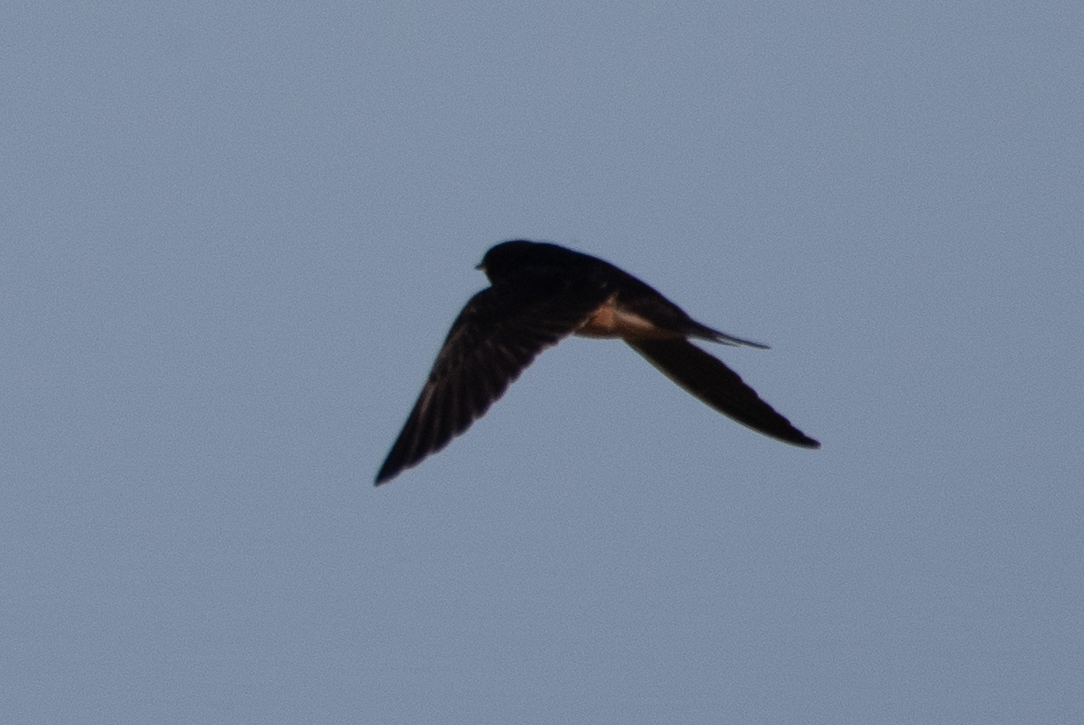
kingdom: Animalia
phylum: Chordata
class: Aves
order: Passeriformes
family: Hirundinidae
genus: Hirundo
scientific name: Hirundo rustica
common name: Barn swallow
